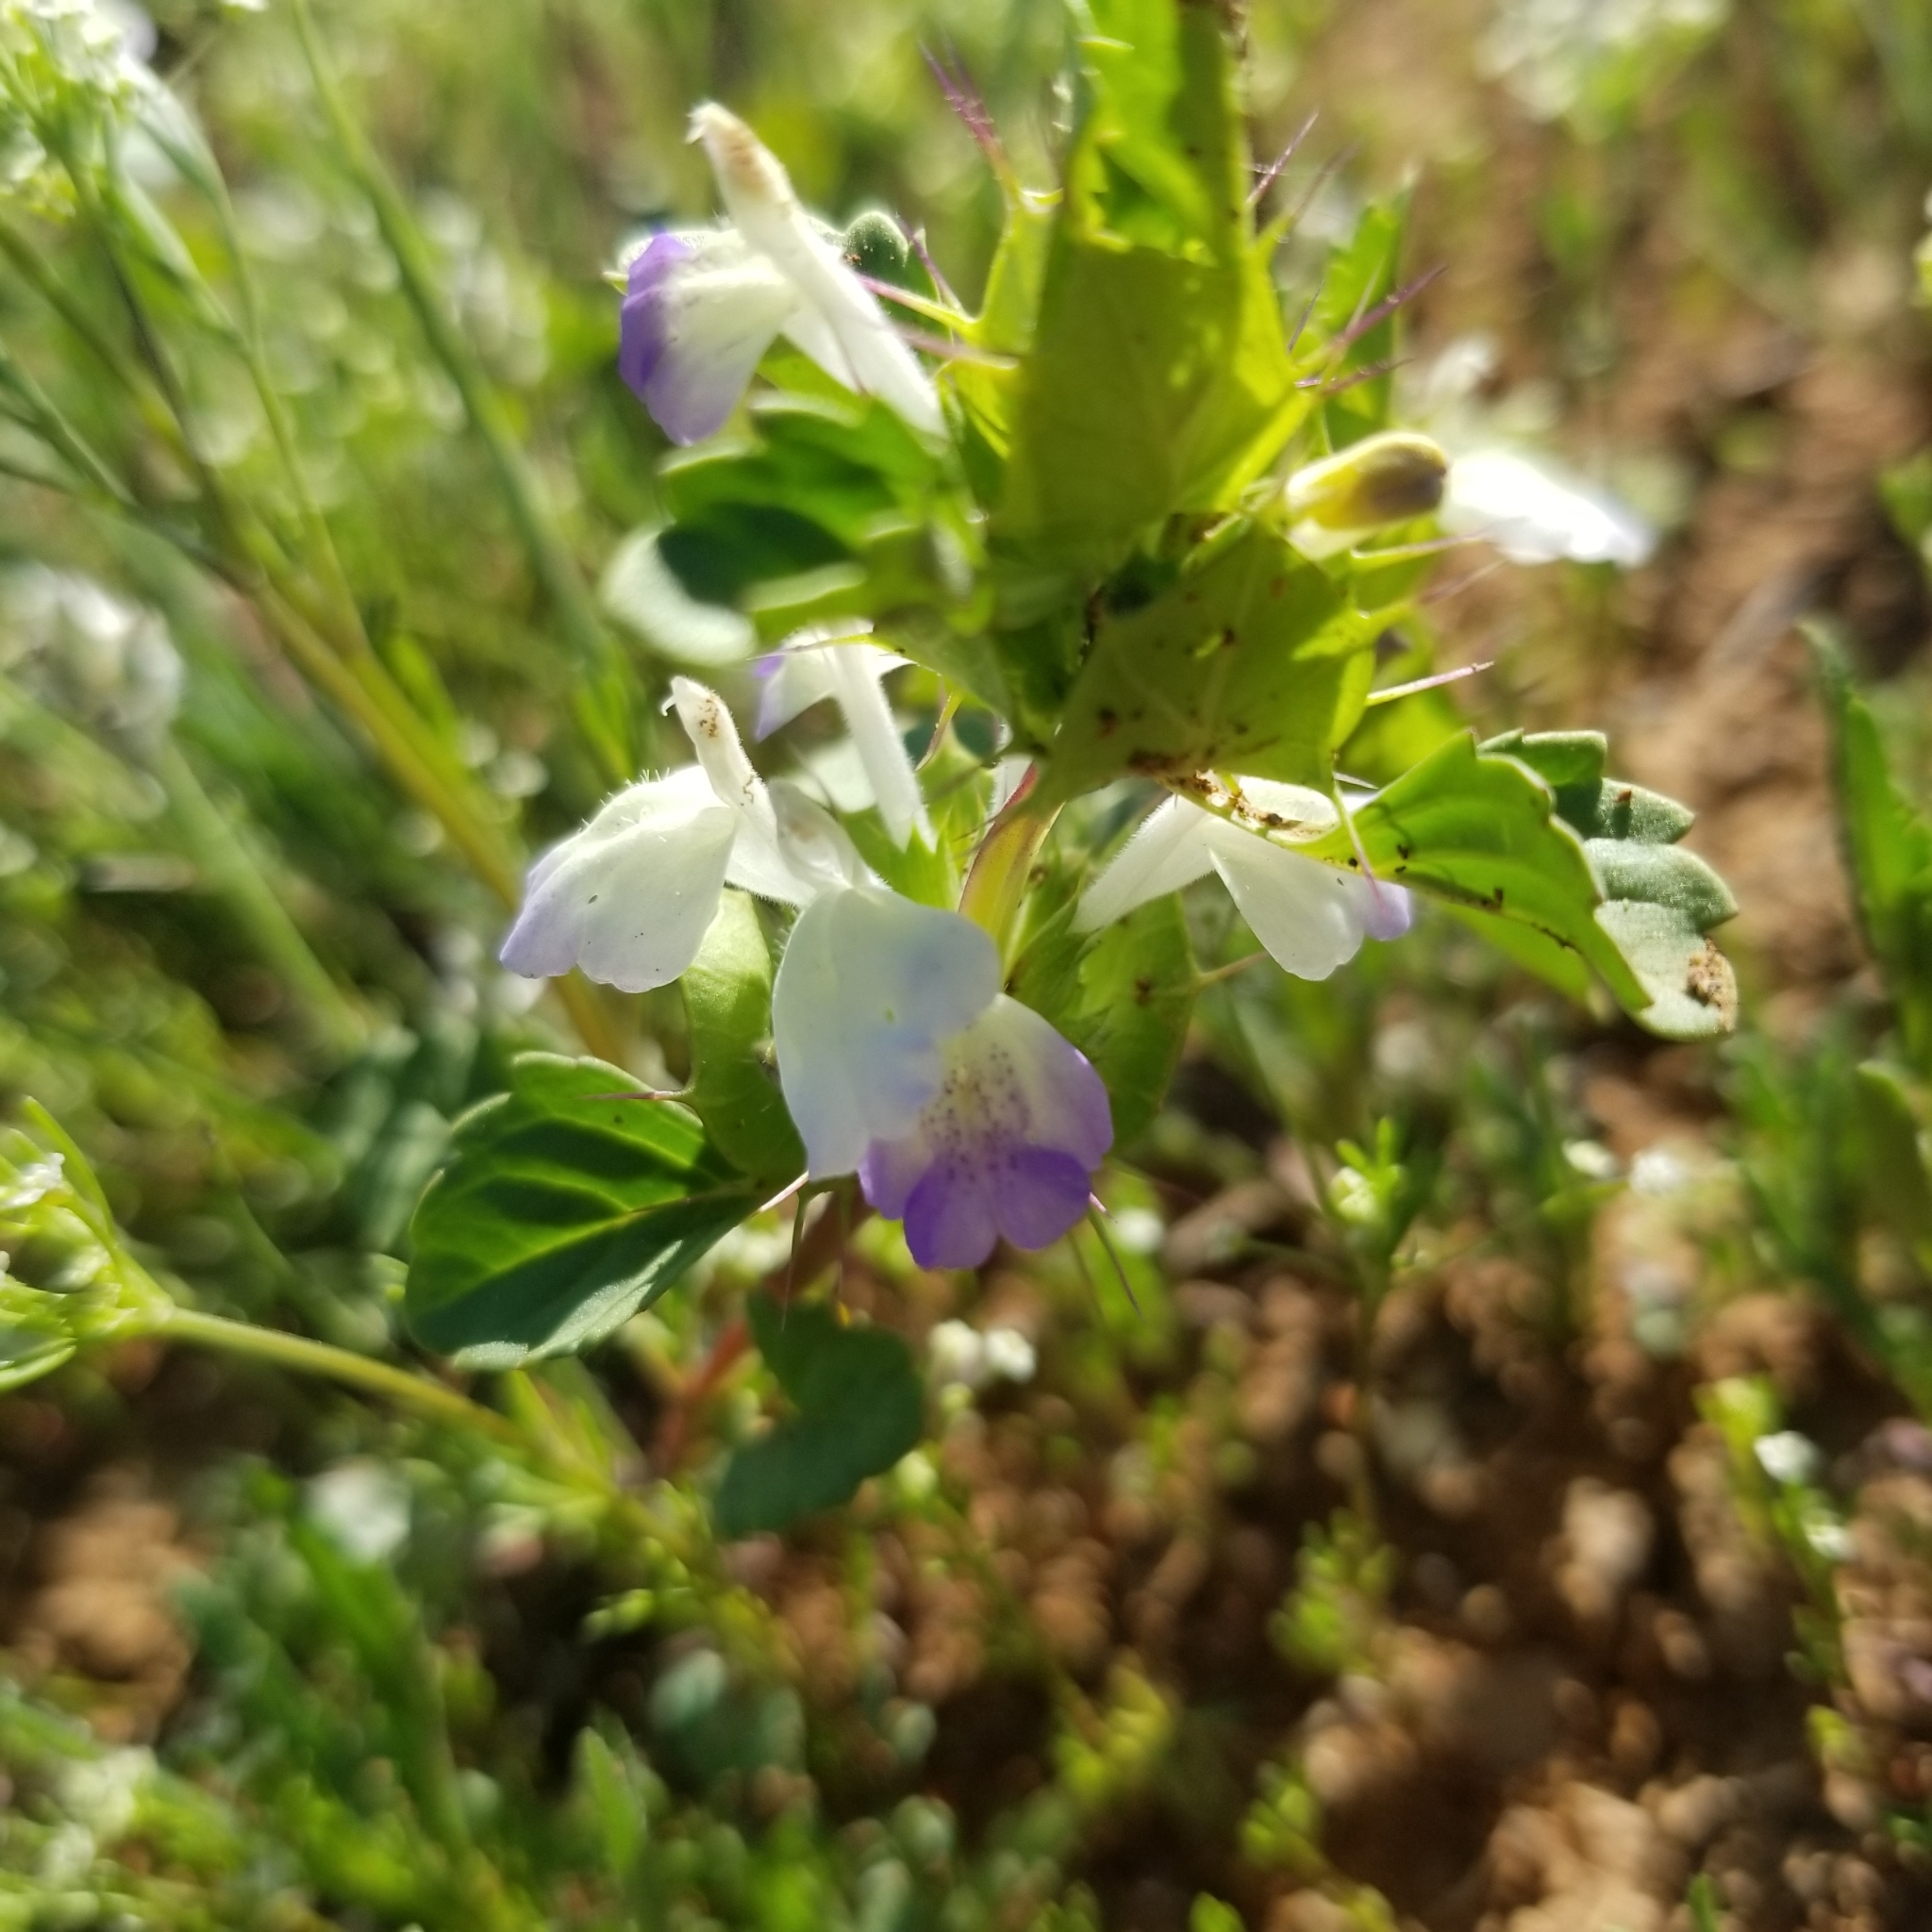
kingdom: Plantae
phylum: Tracheophyta
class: Magnoliopsida
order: Lamiales
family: Lamiaceae
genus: Acanthomintha
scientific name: Acanthomintha ilicifolia
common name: San diego thorn-mint
